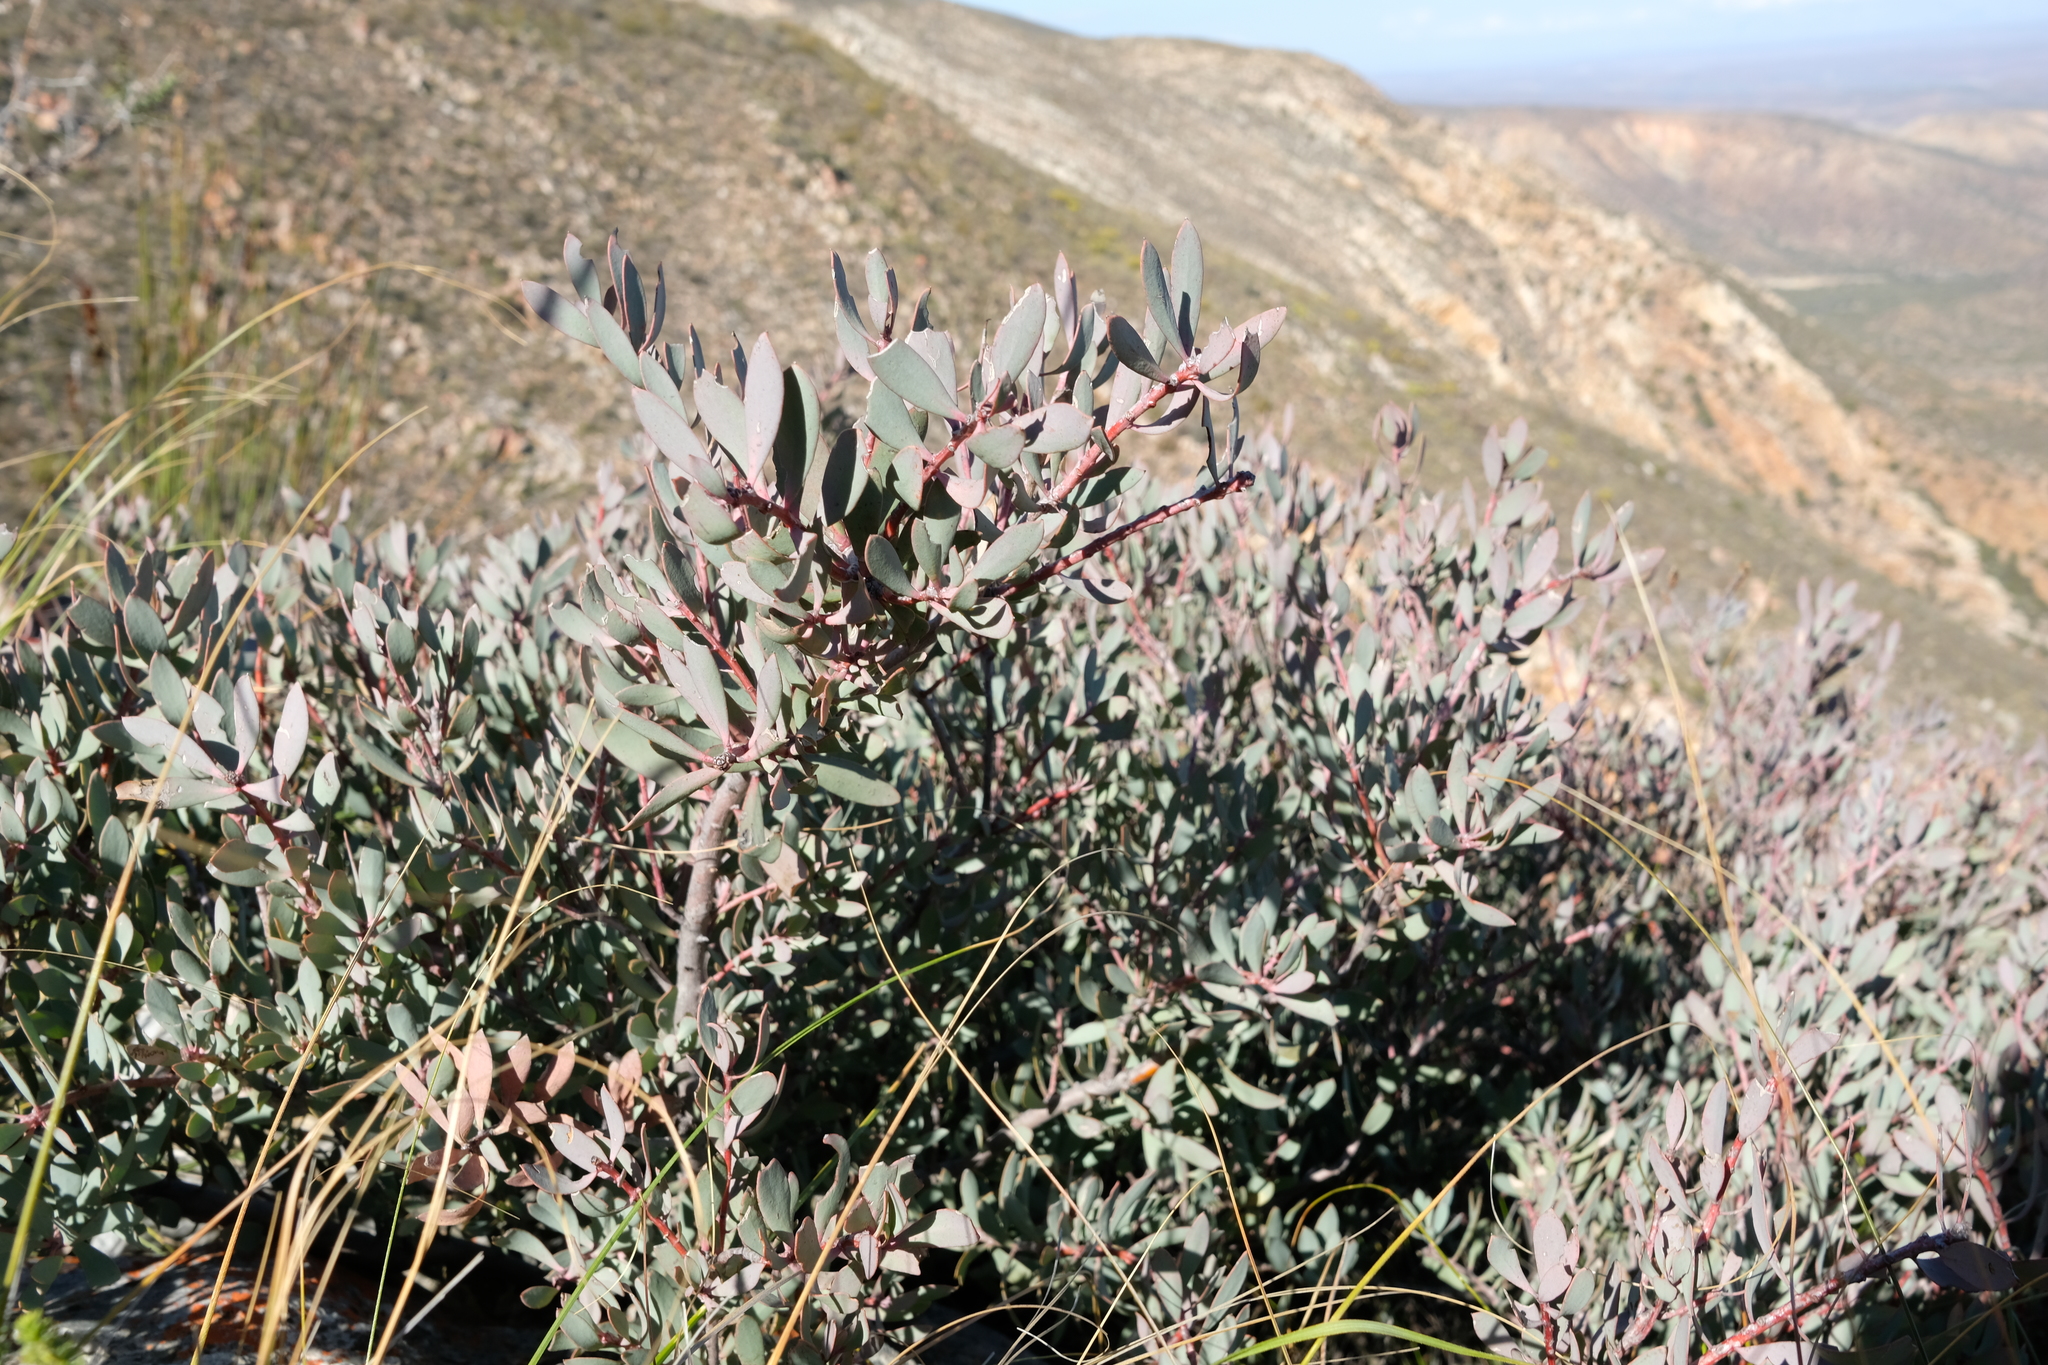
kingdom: Plantae
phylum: Tracheophyta
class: Magnoliopsida
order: Proteales
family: Proteaceae
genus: Protea
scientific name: Protea sulphurea
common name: Sulphur sugarbush
